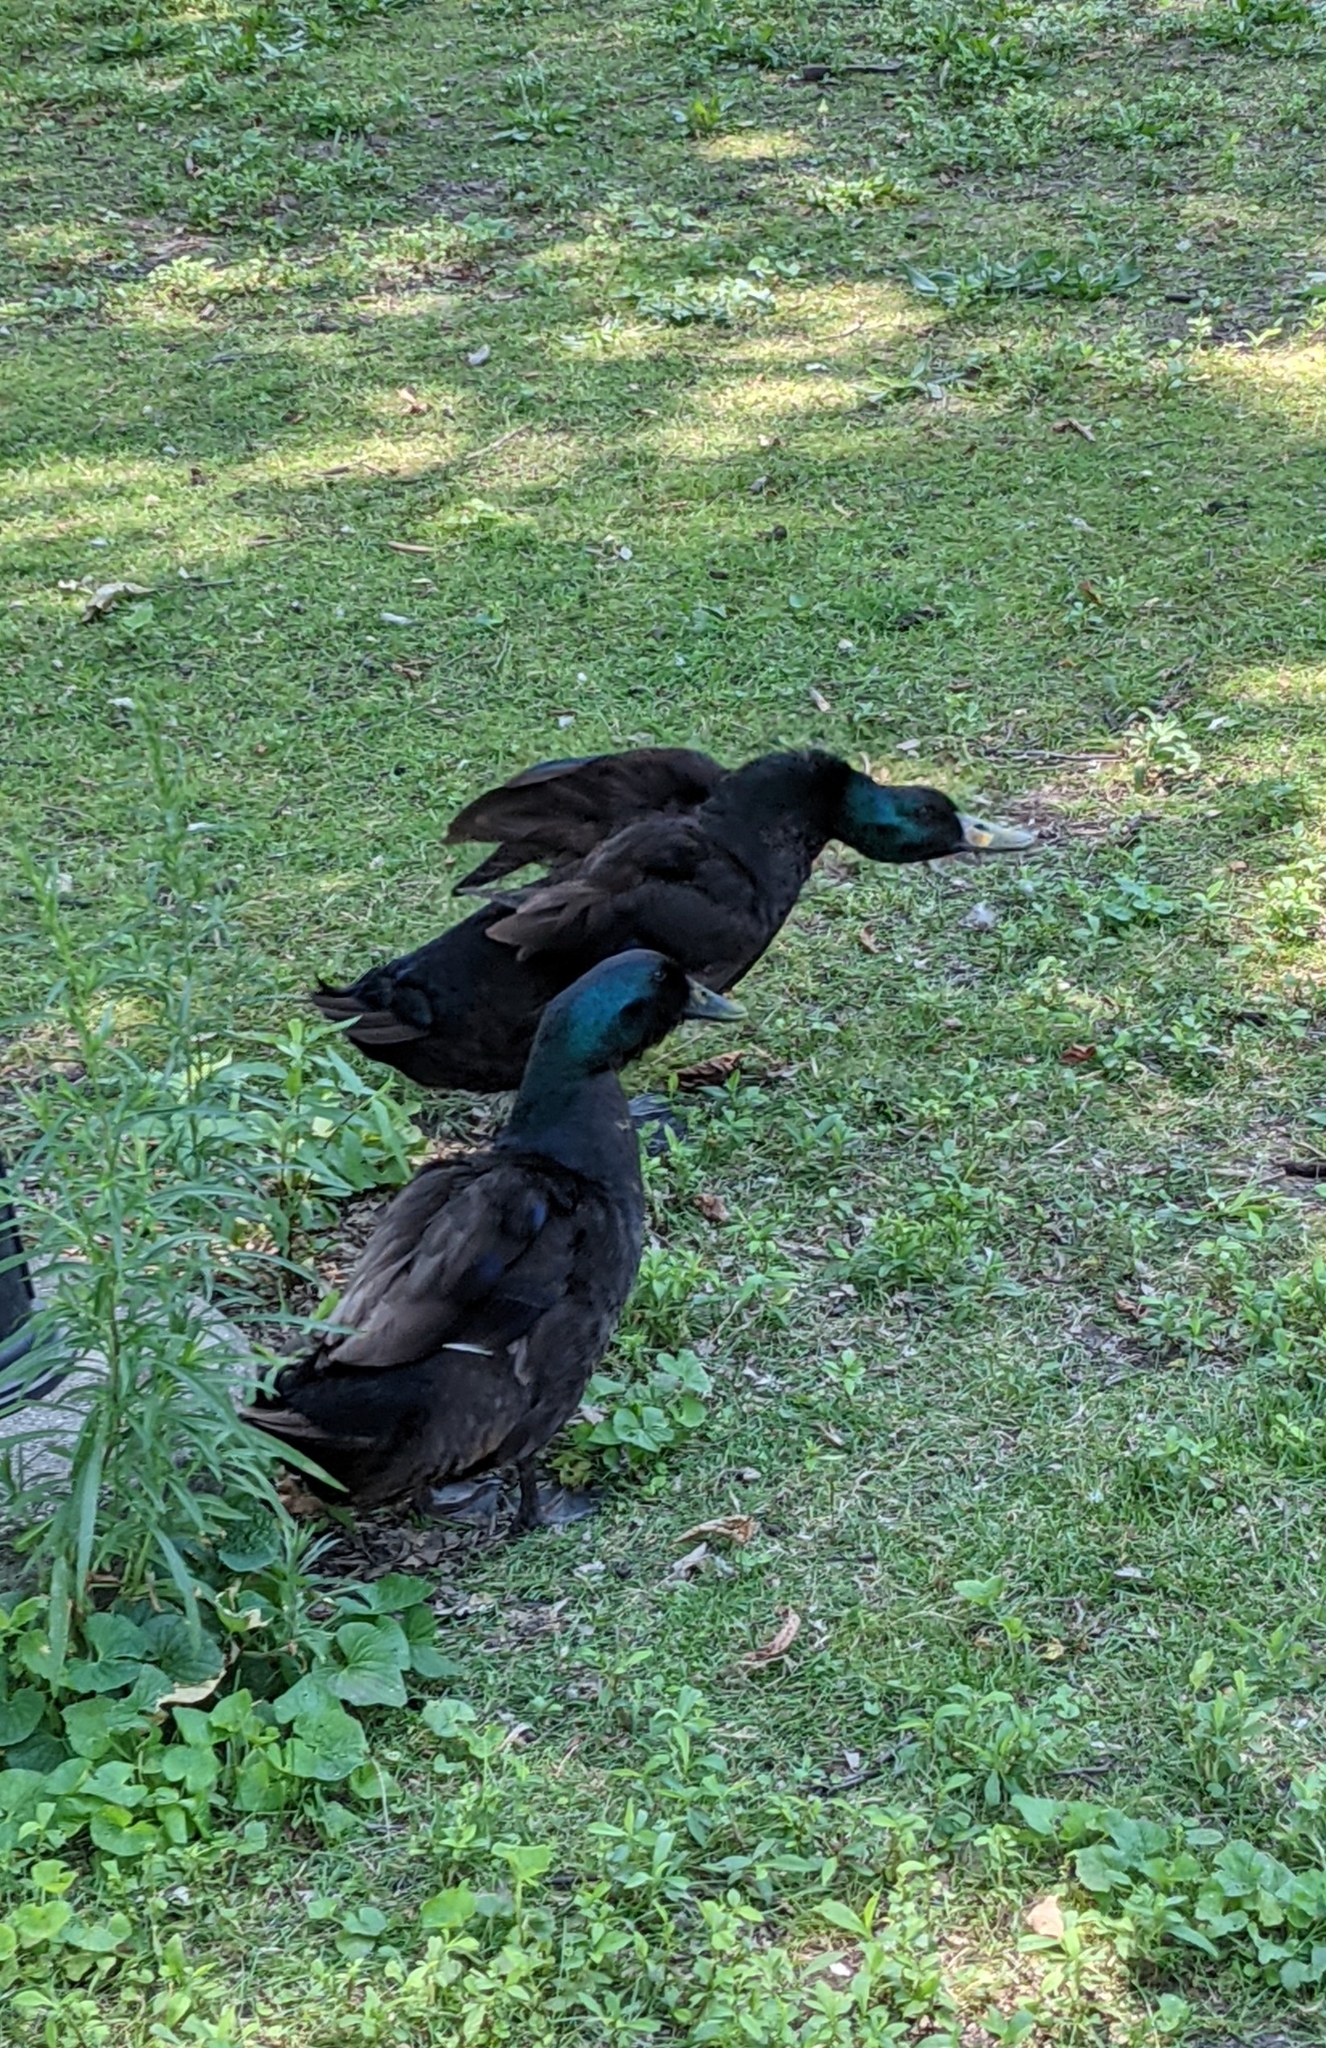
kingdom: Animalia
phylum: Chordata
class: Aves
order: Anseriformes
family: Anatidae
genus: Anas
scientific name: Anas platyrhynchos
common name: Mallard
